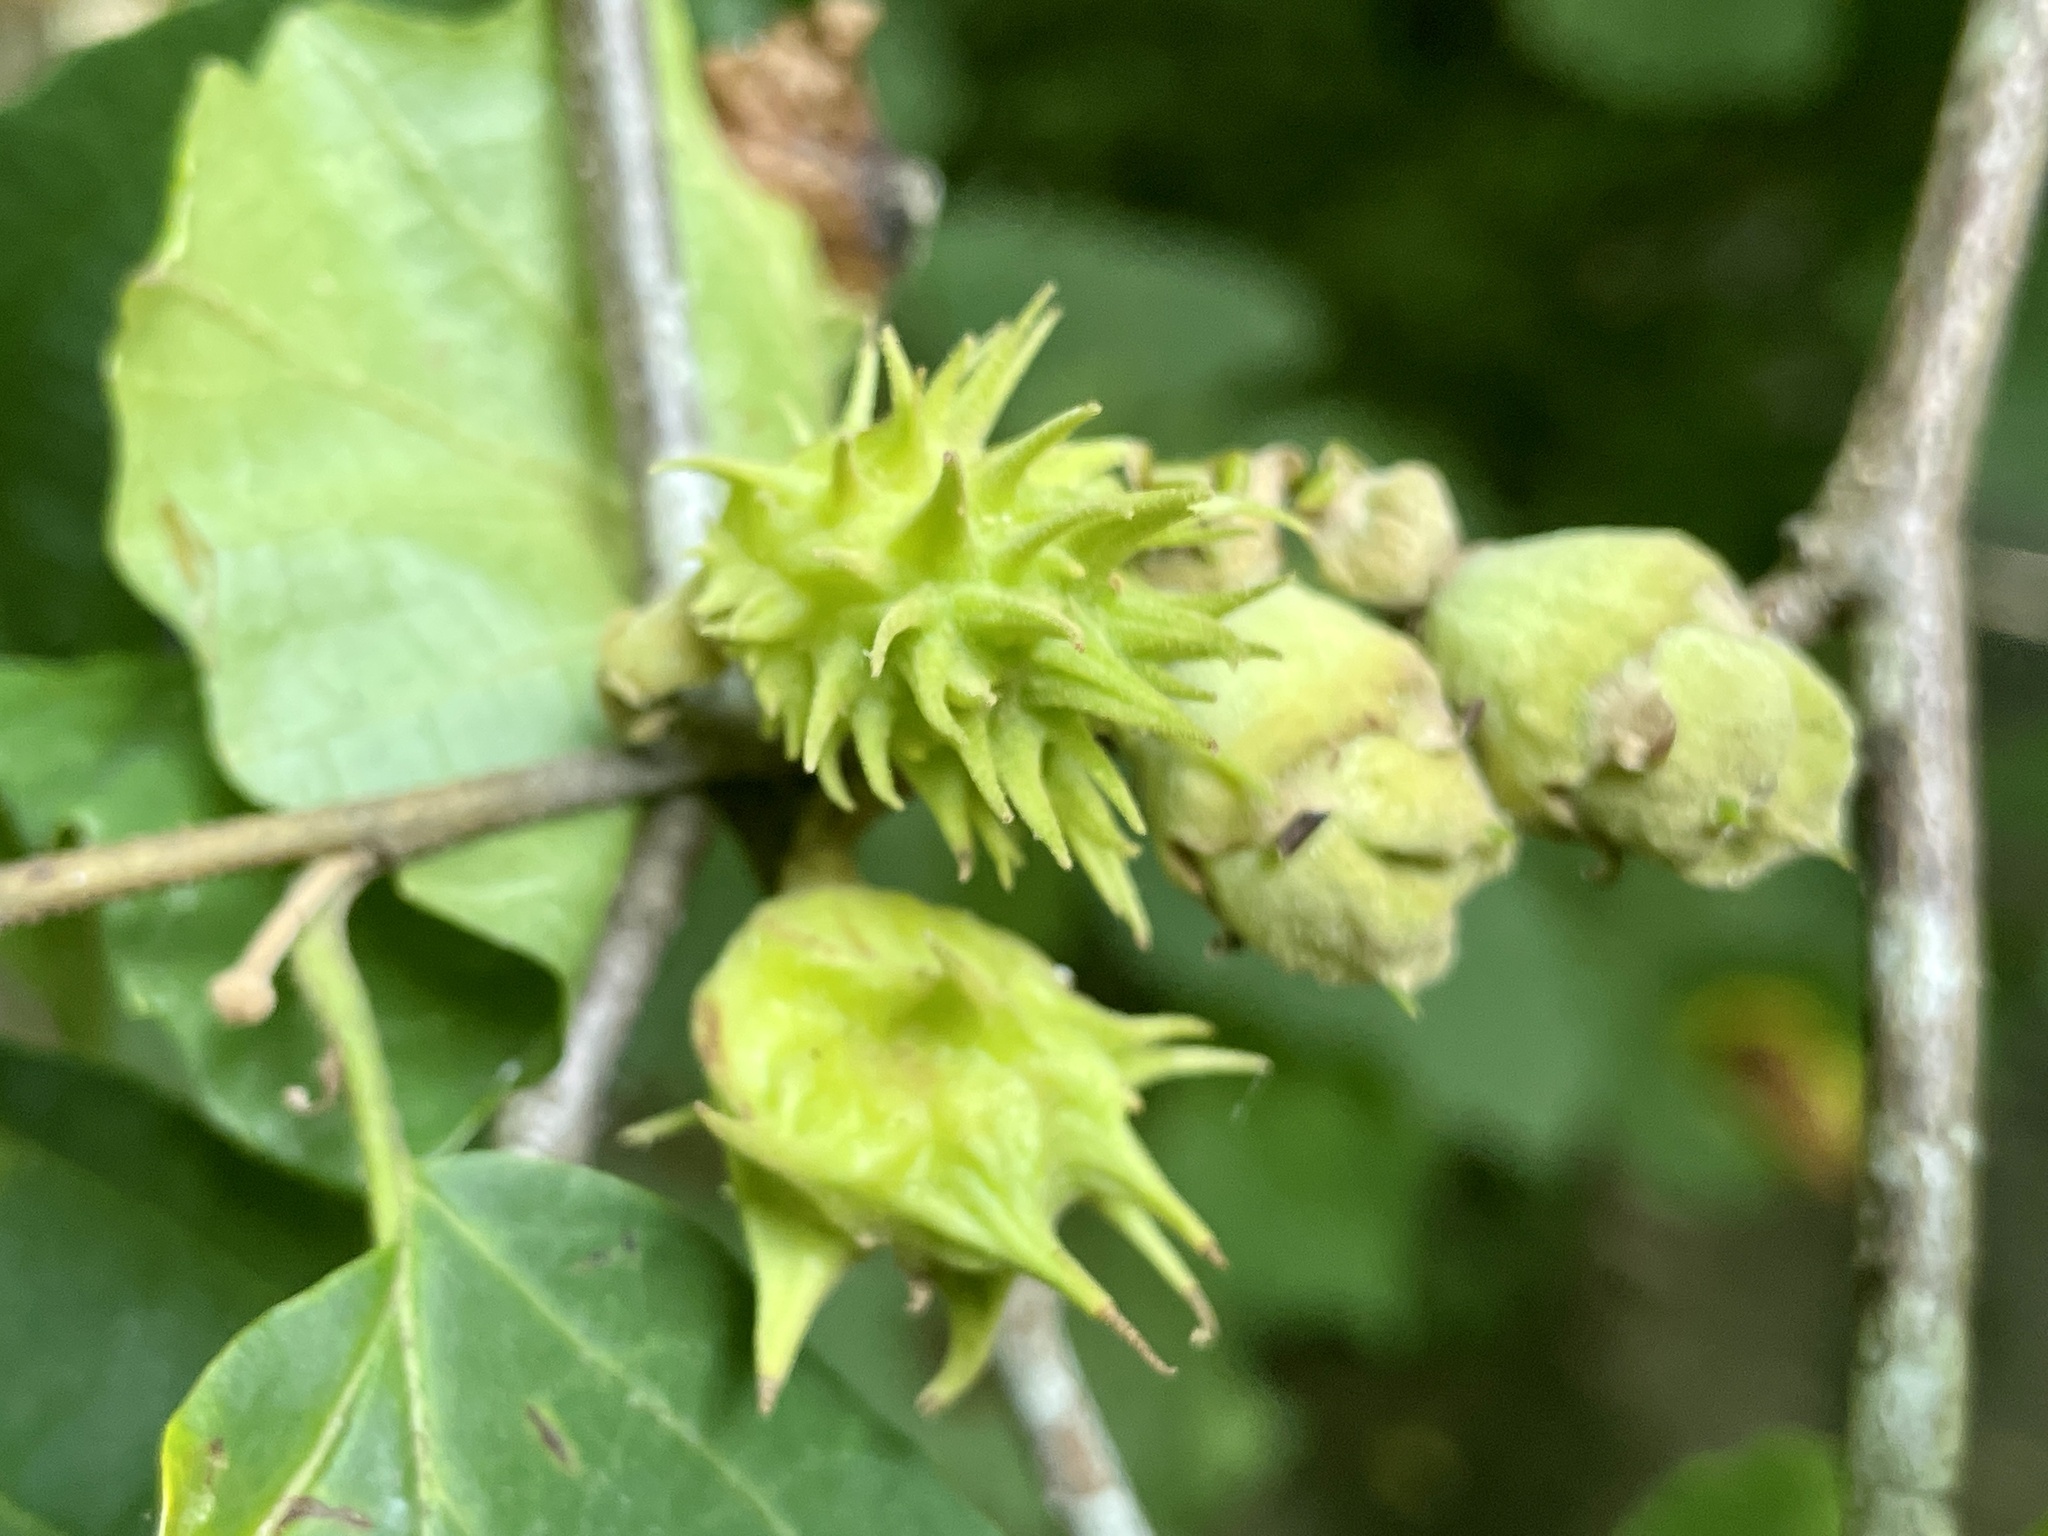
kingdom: Animalia
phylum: Arthropoda
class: Insecta
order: Hemiptera
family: Aphididae
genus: Hamamelistes
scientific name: Hamamelistes spinosus
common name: Witch hazel gall aphid
